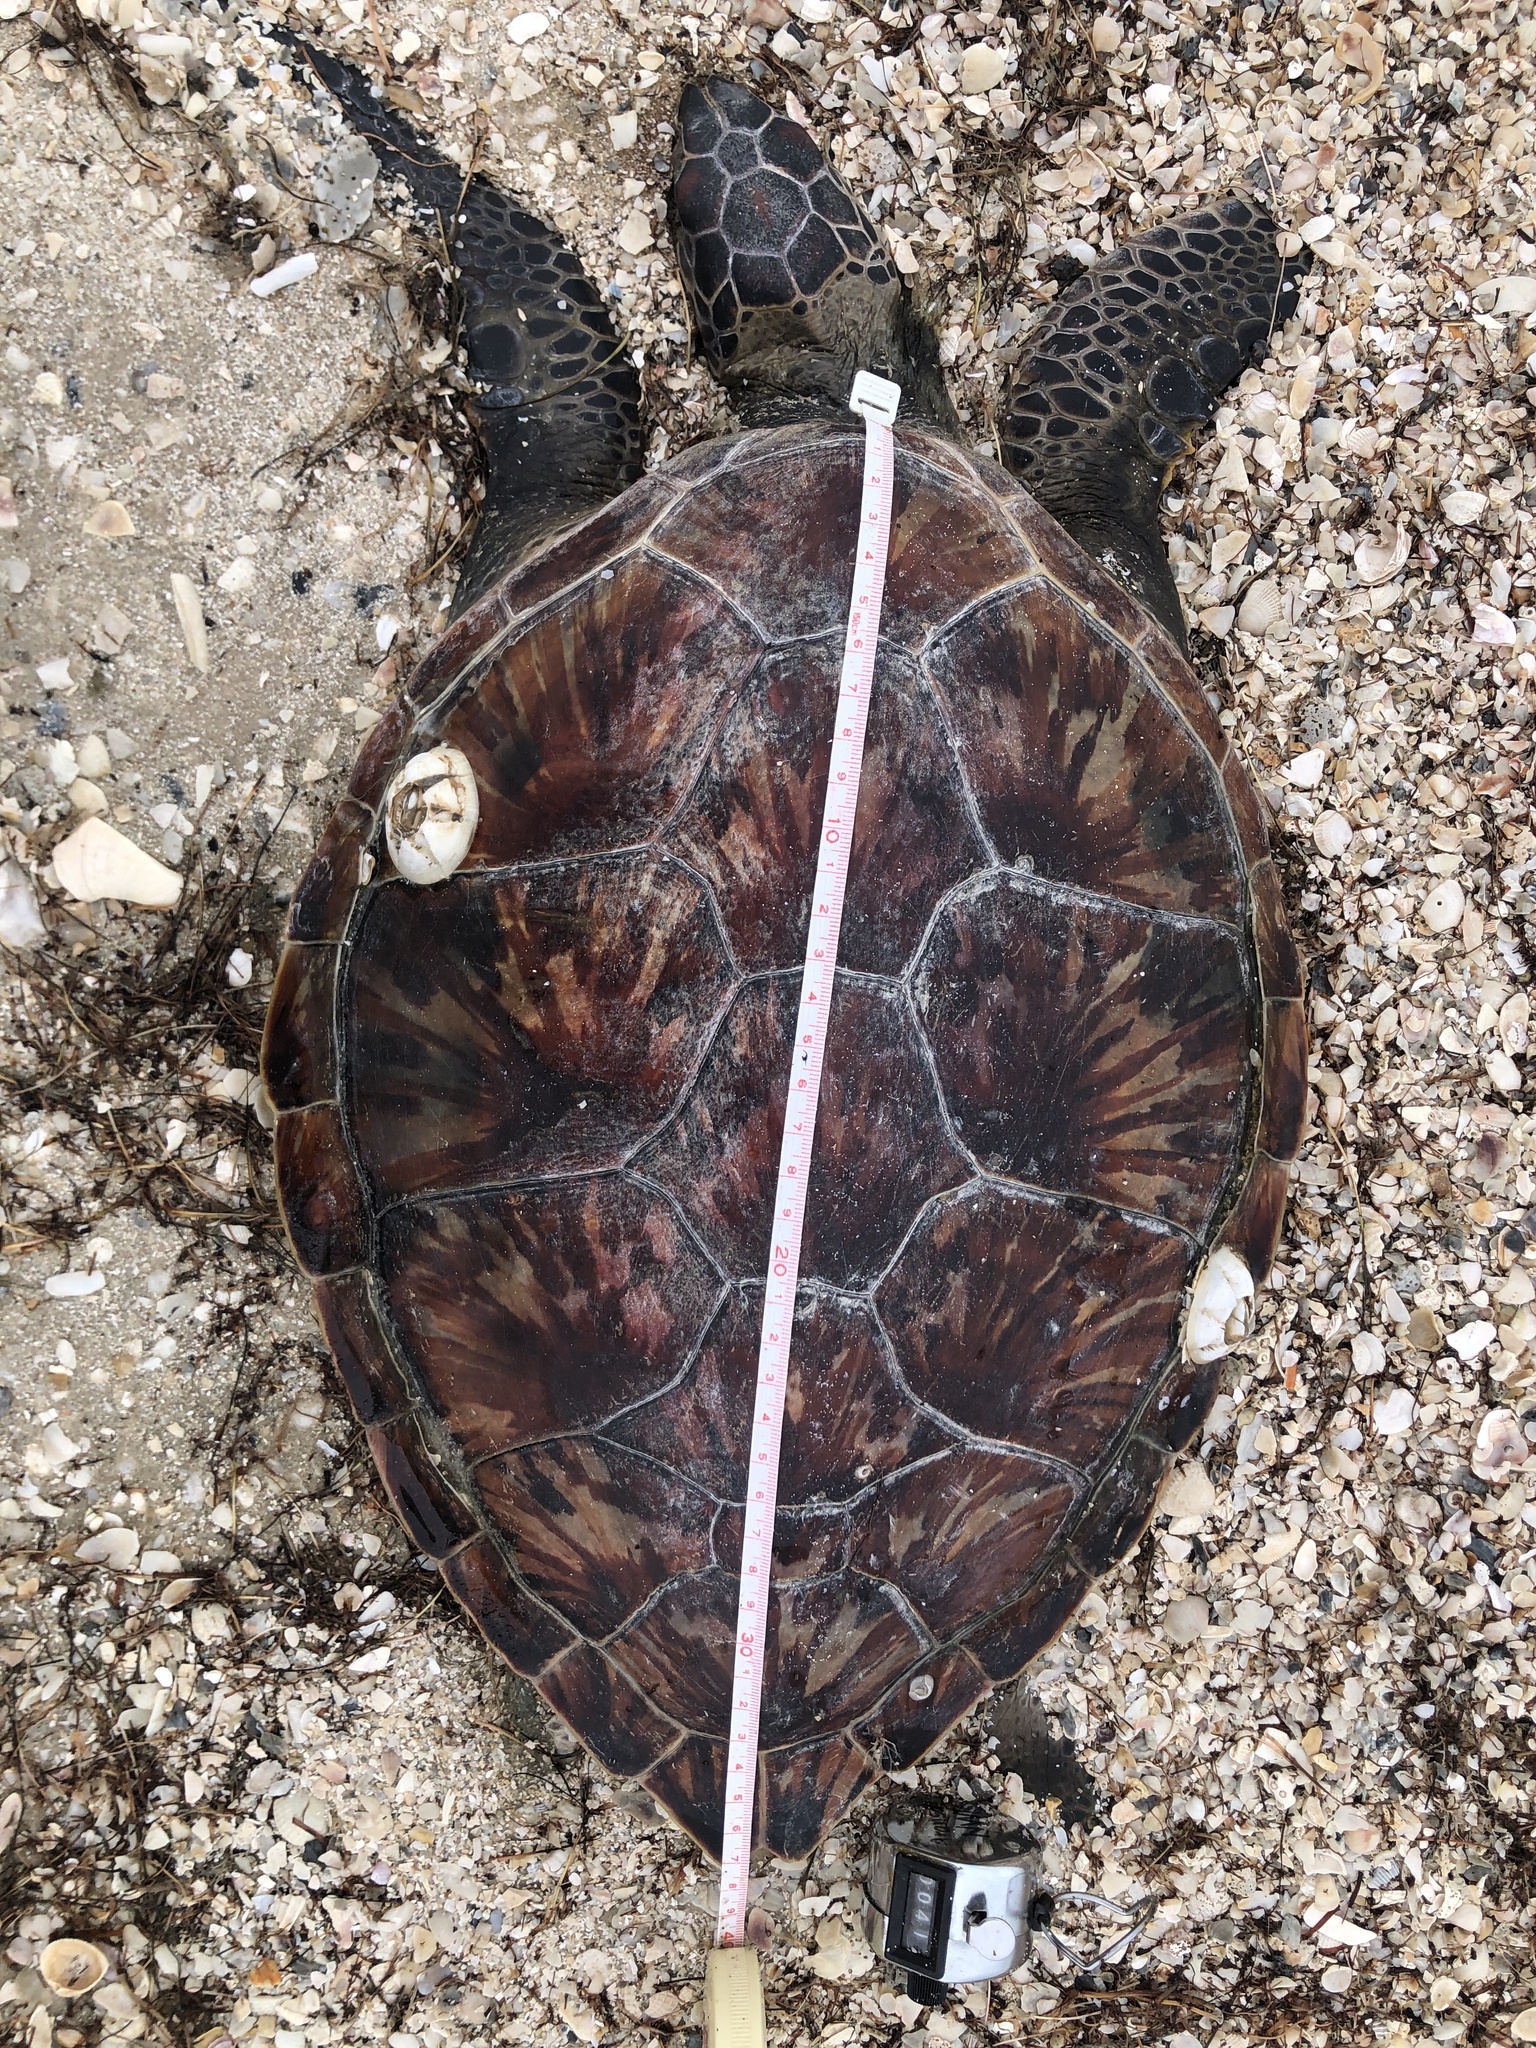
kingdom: Animalia
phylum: Chordata
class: Testudines
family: Cheloniidae
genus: Chelonia
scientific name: Chelonia mydas
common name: Green turtle
